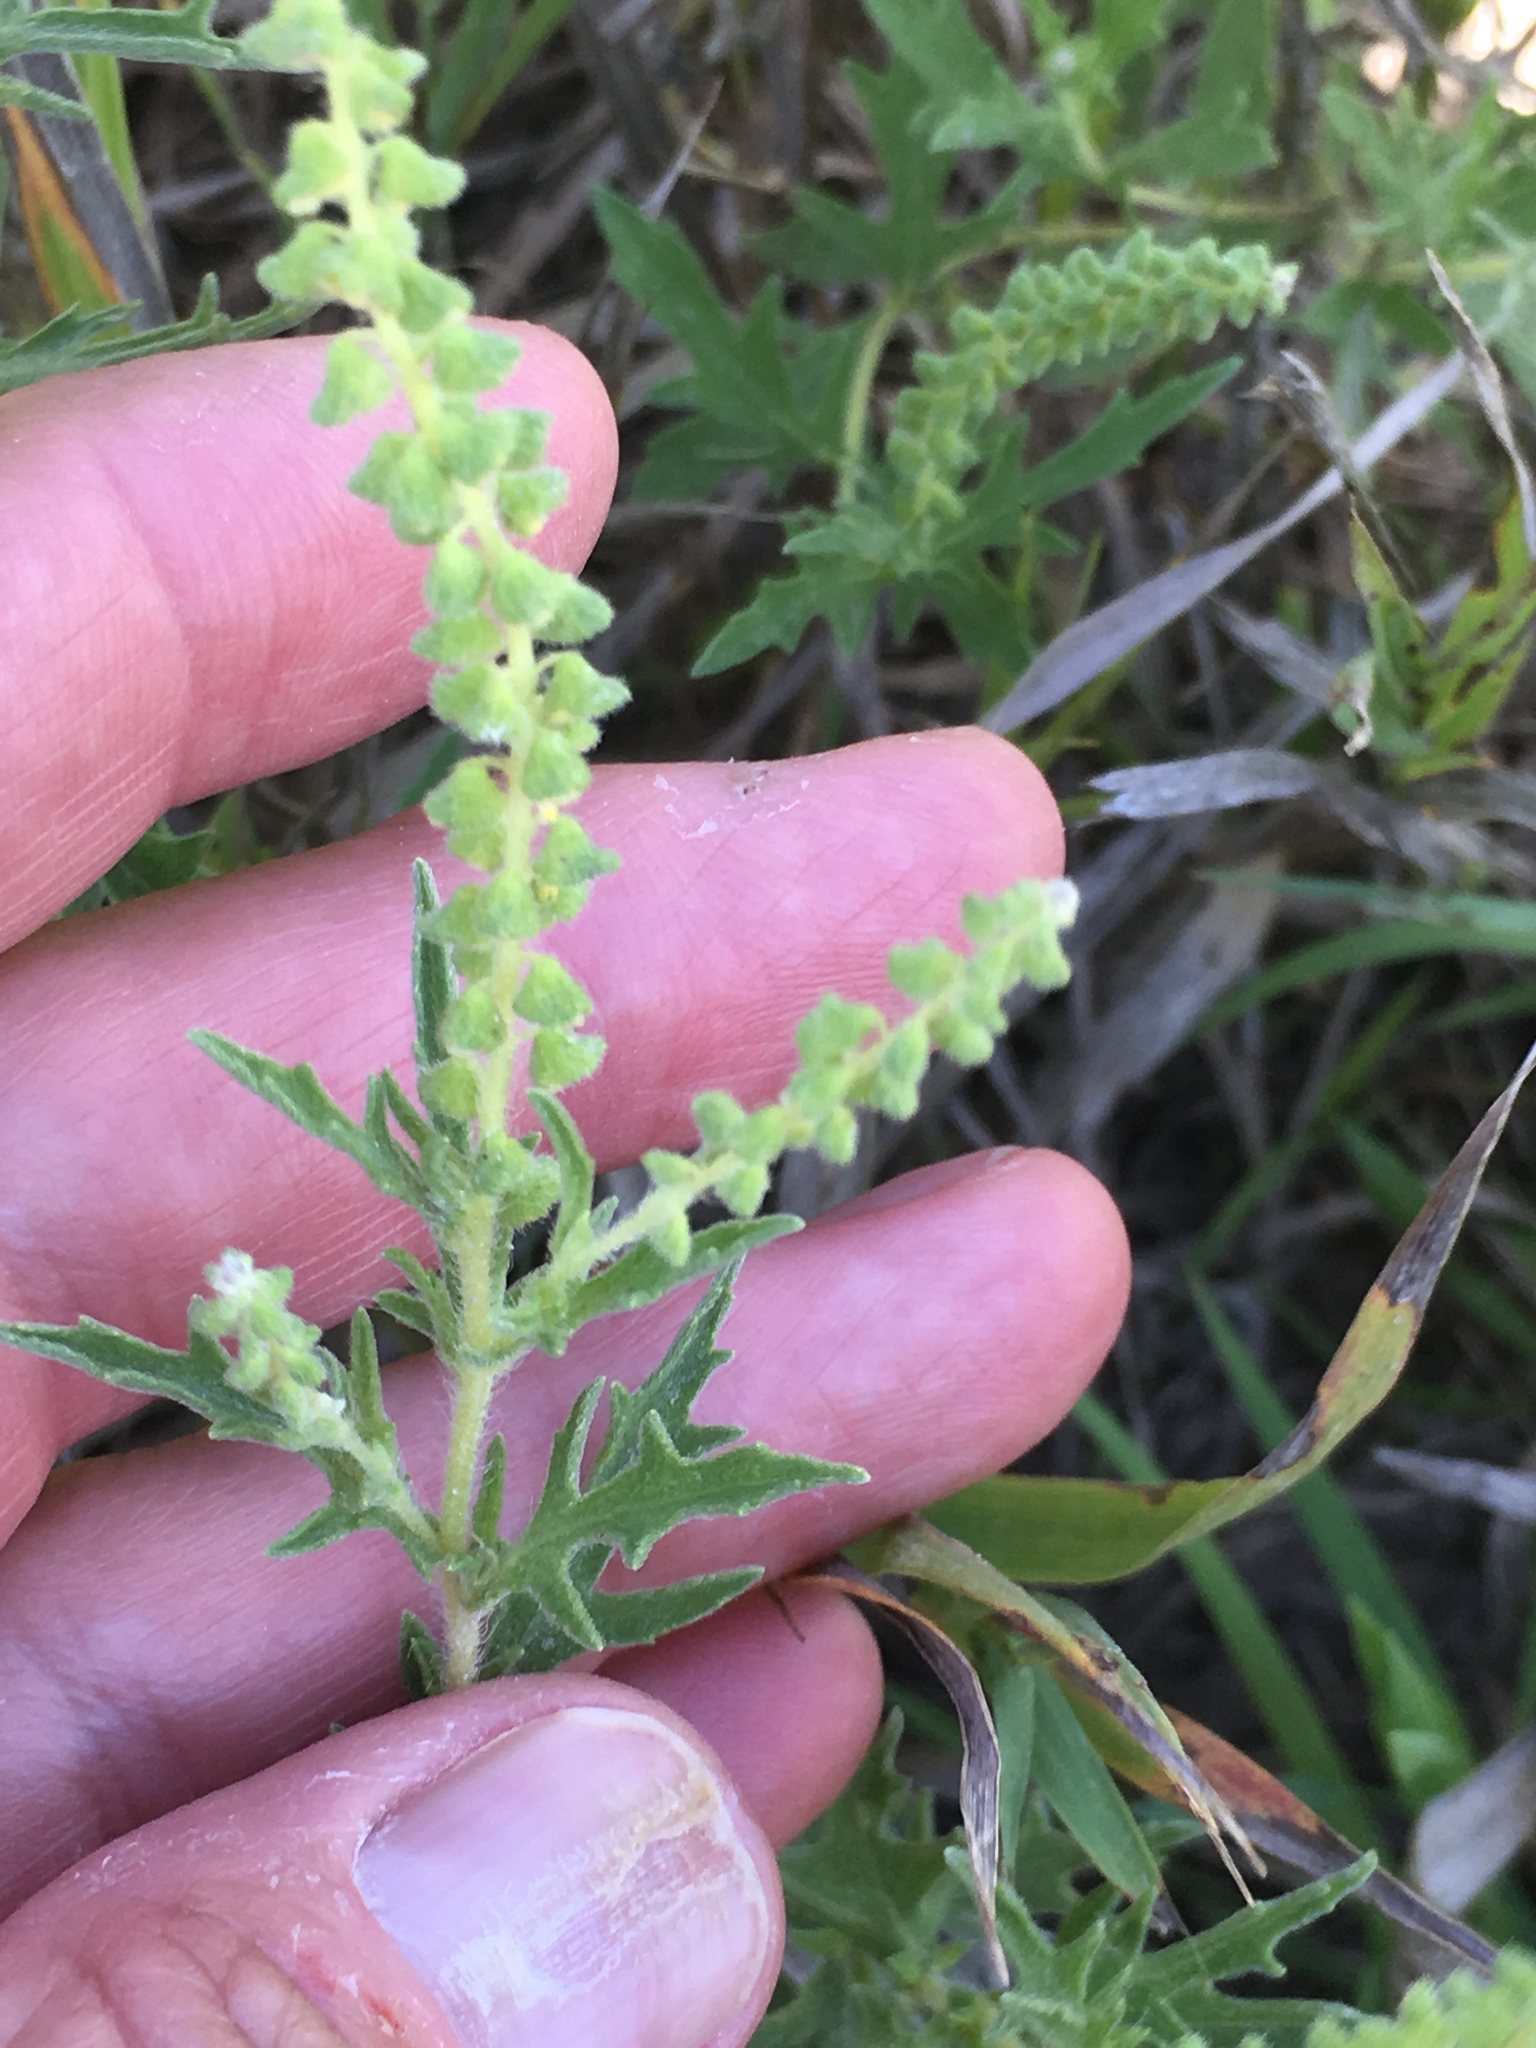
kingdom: Plantae
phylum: Tracheophyta
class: Magnoliopsida
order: Asterales
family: Asteraceae
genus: Ambrosia
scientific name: Ambrosia psilostachya
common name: Perennial ragweed
